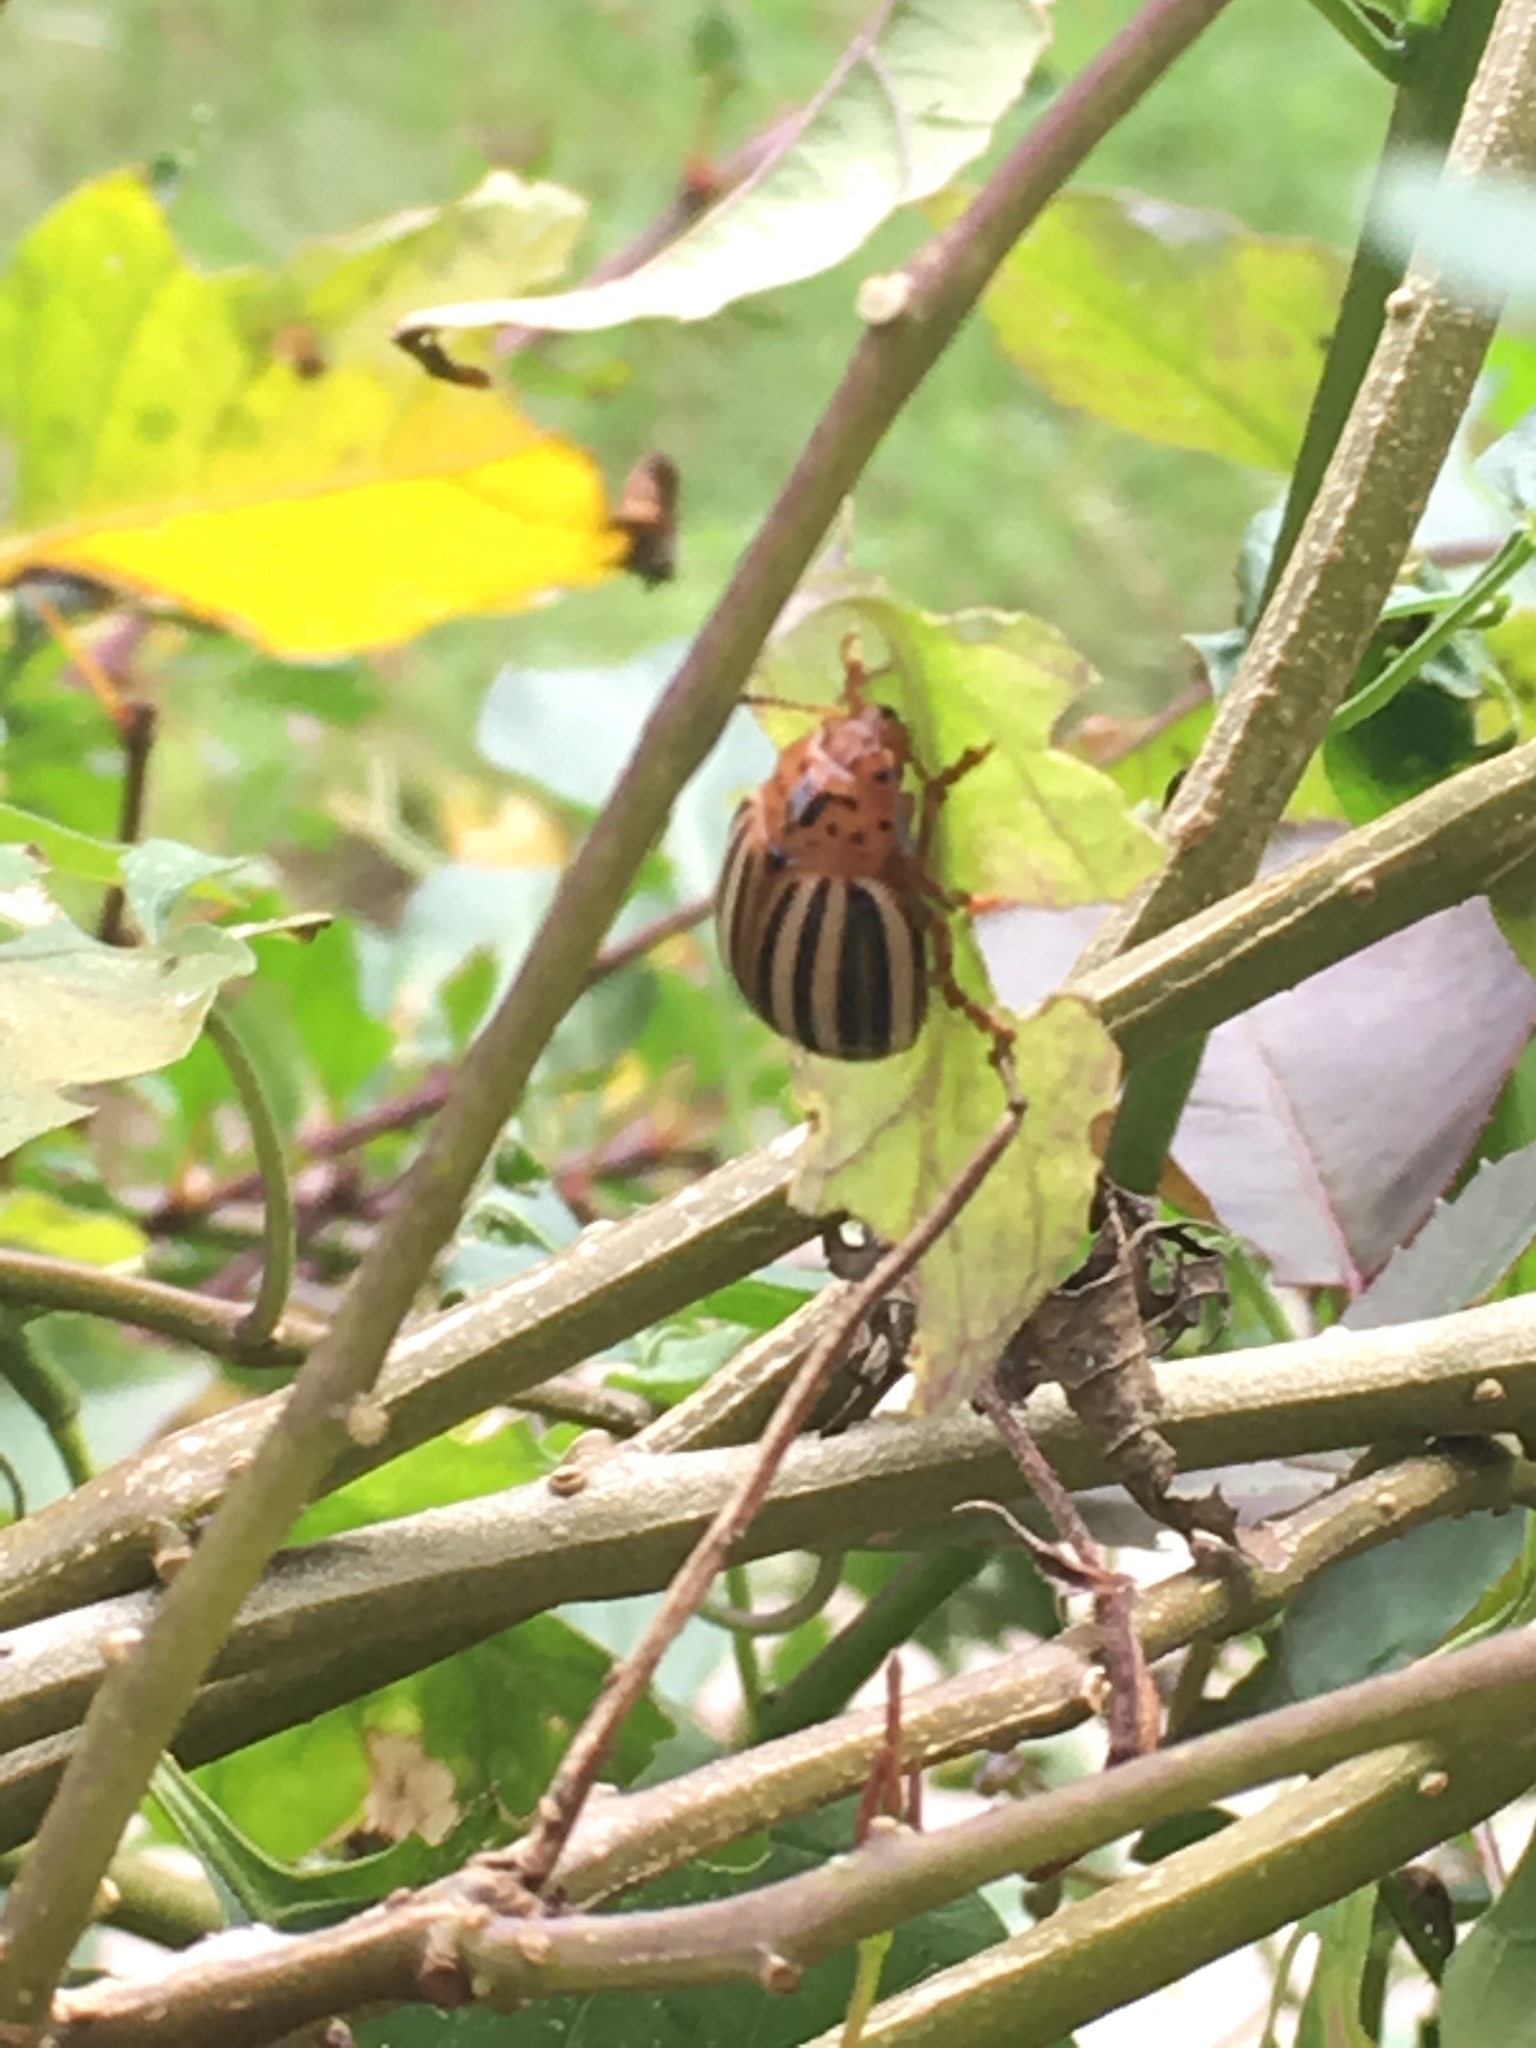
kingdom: Animalia
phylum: Arthropoda
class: Insecta
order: Coleoptera
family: Chrysomelidae
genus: Leptinotarsa
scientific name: Leptinotarsa juncta
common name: False potato beetle
